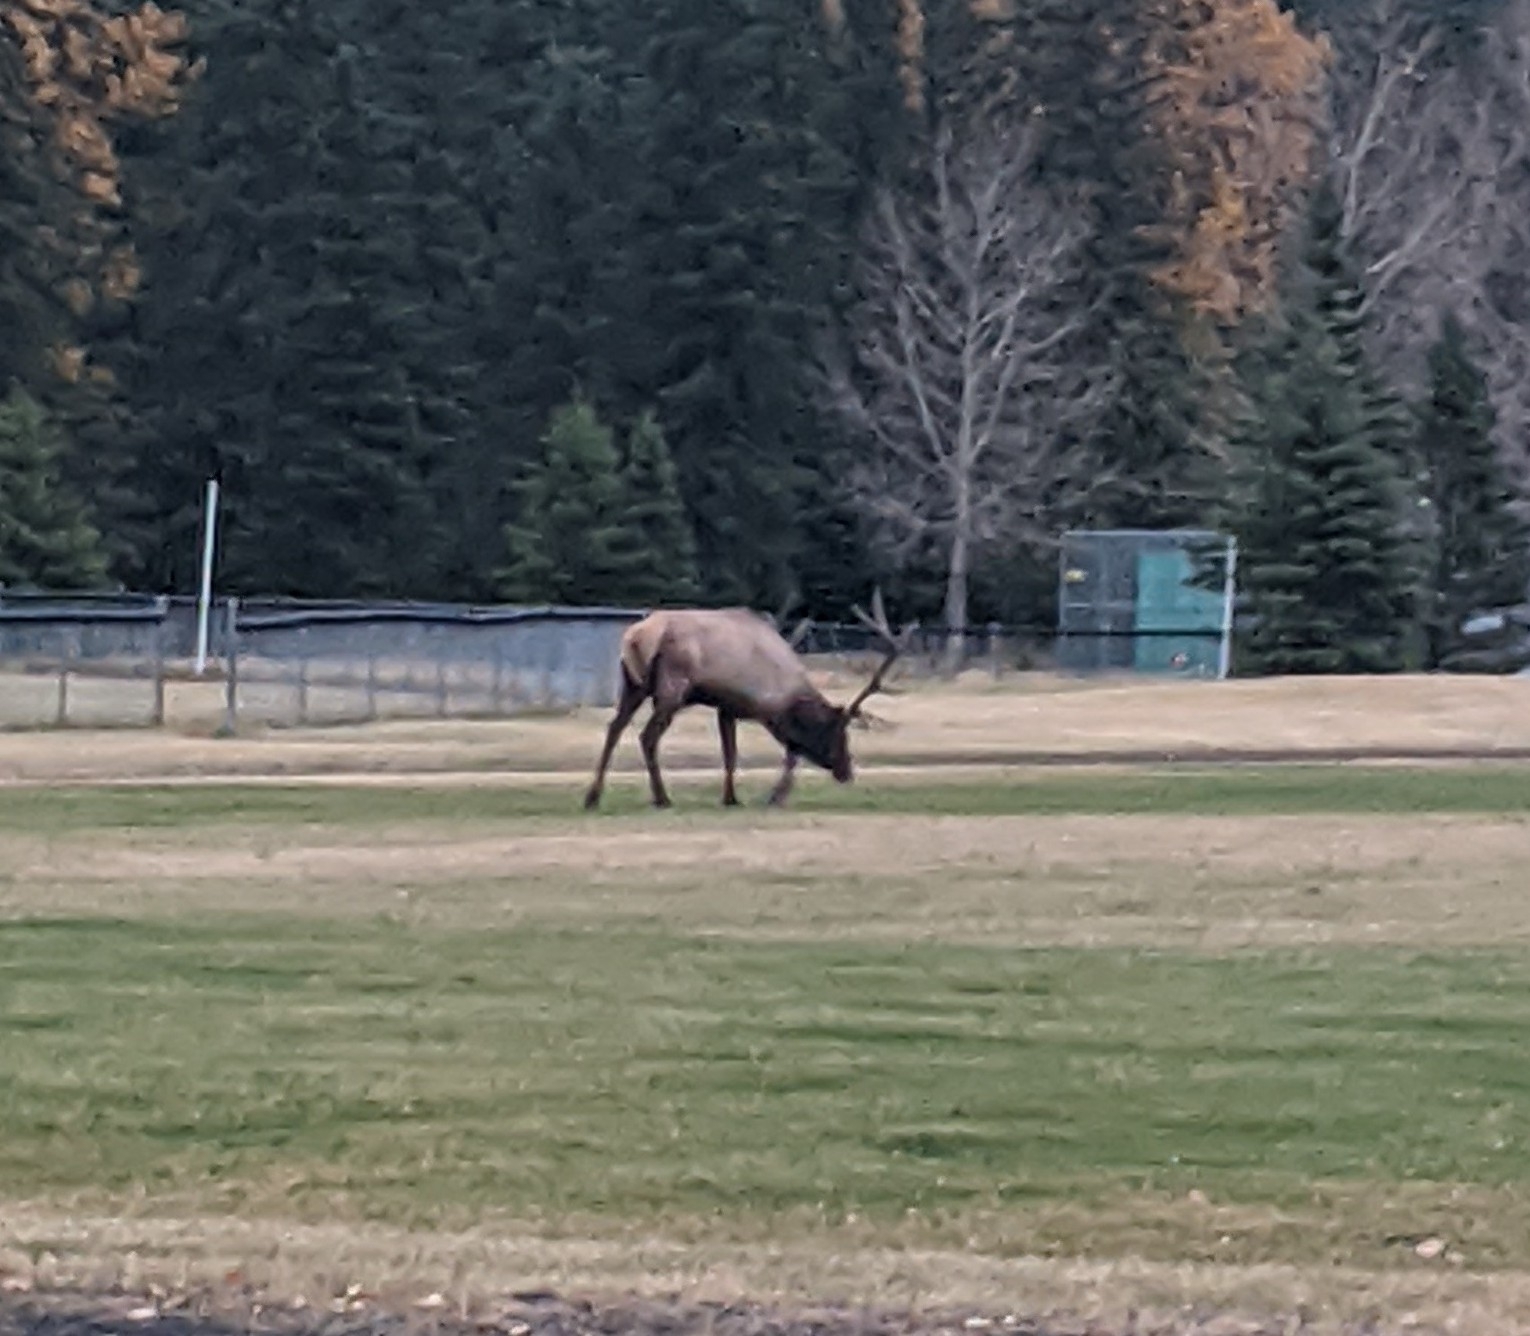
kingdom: Animalia
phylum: Chordata
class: Mammalia
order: Artiodactyla
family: Cervidae
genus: Cervus
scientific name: Cervus elaphus
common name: Red deer
